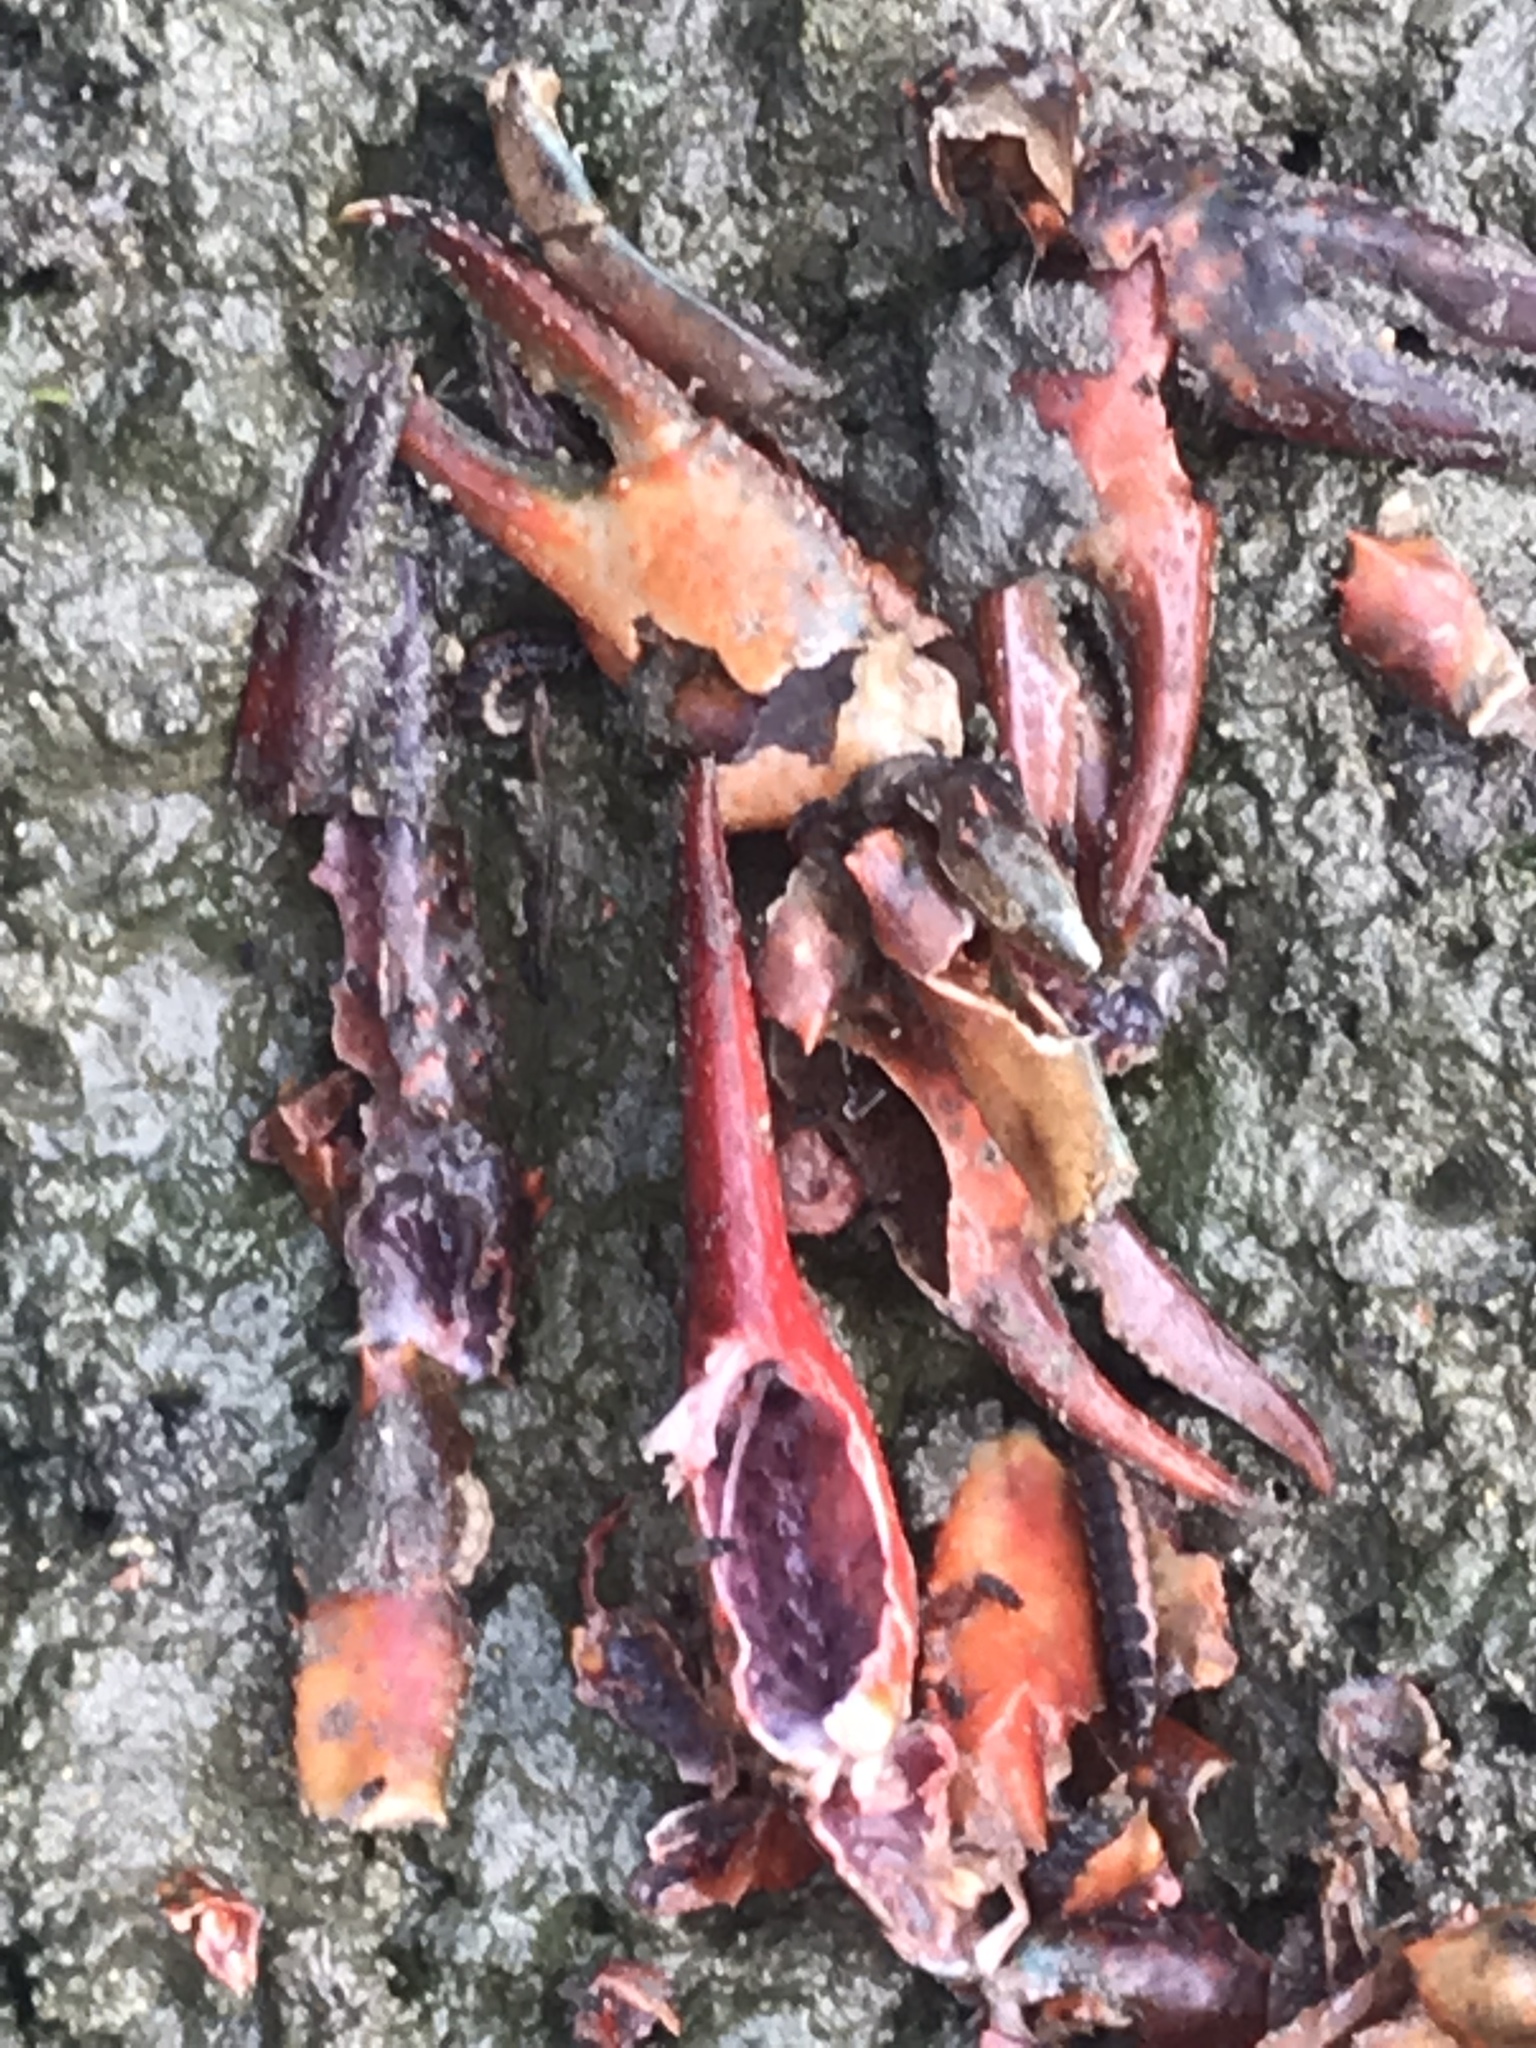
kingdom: Animalia
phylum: Arthropoda
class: Malacostraca
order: Decapoda
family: Cambaridae
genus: Procambarus
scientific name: Procambarus clarkii
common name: Red swamp crayfish
